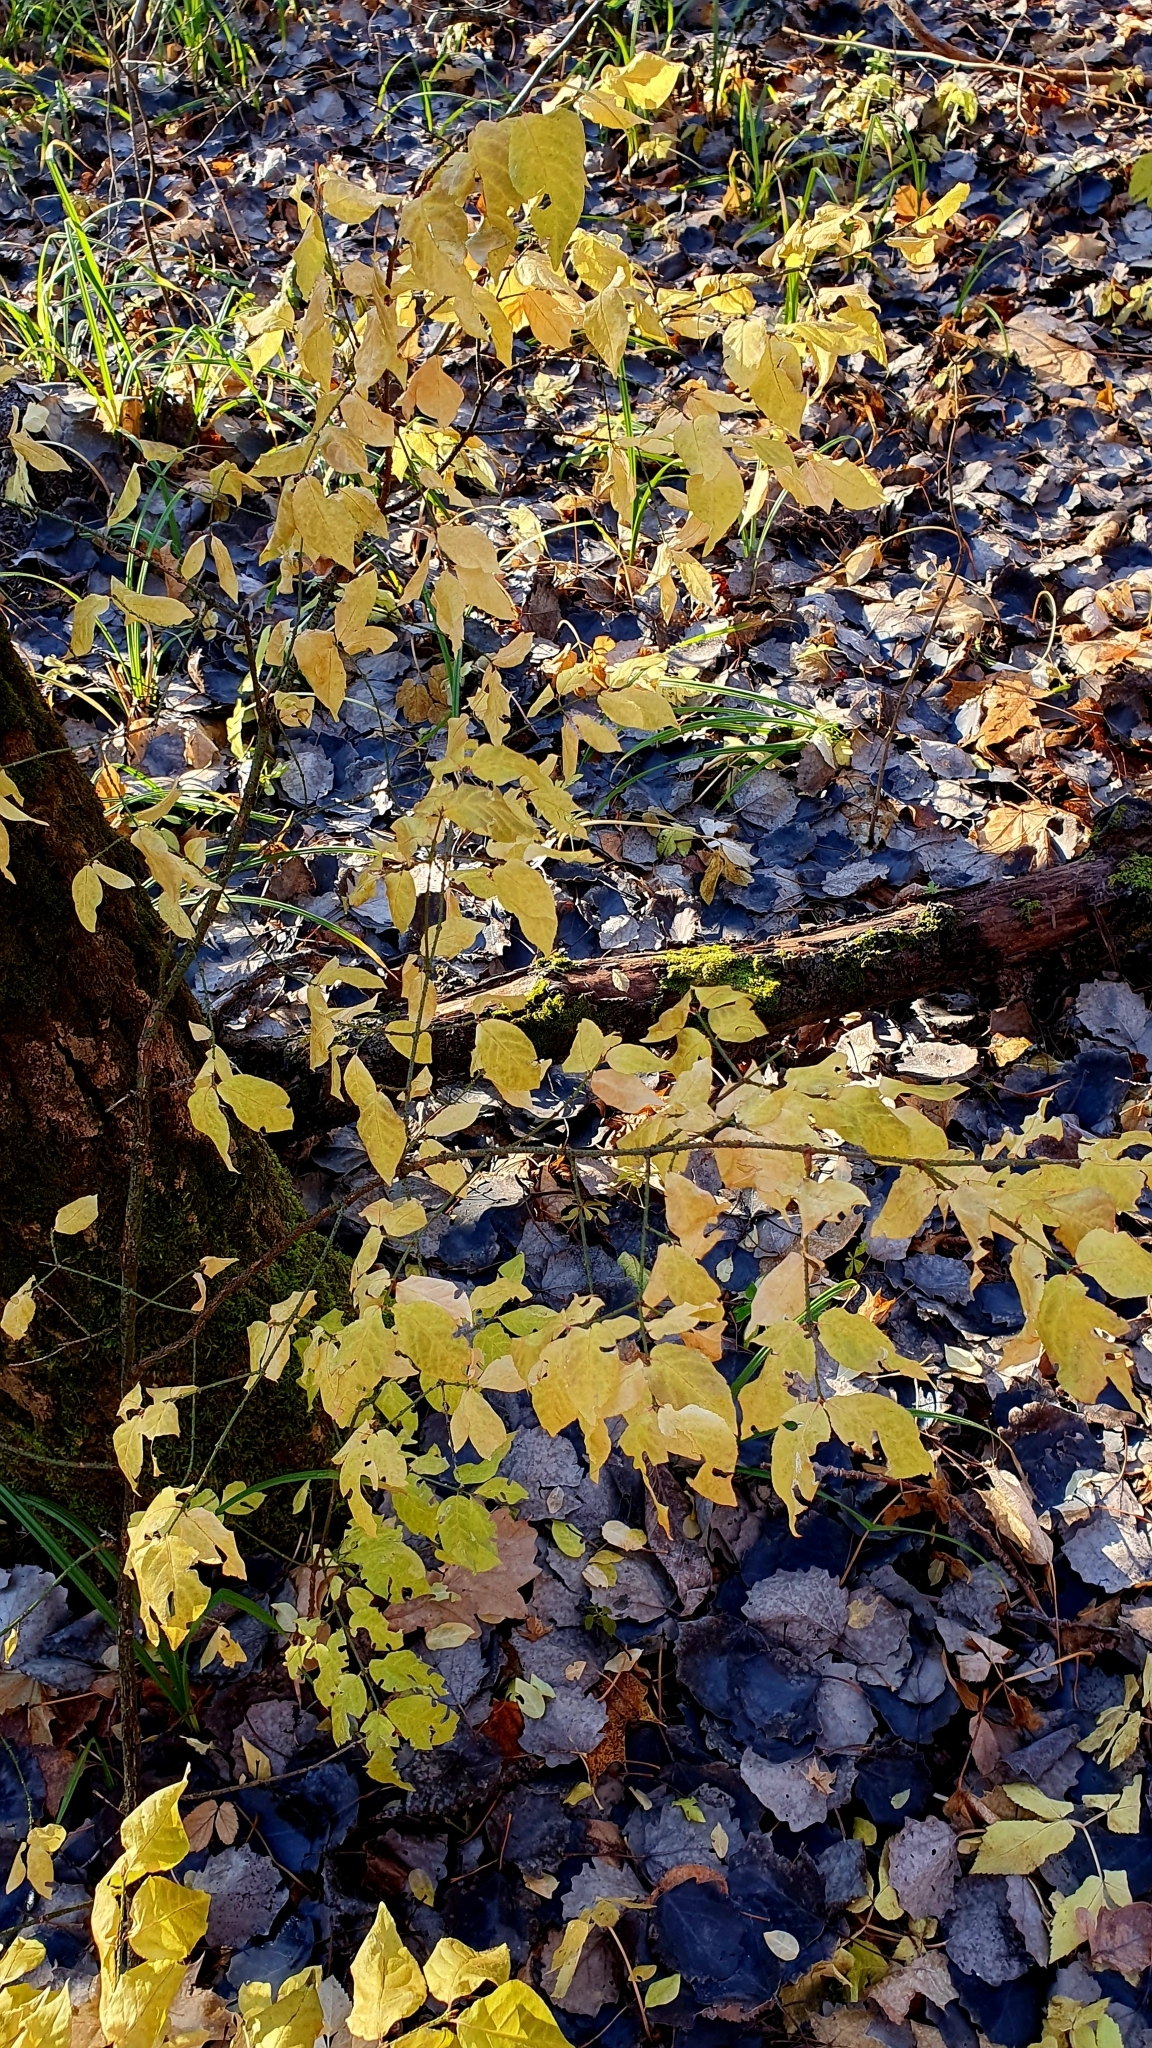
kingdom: Plantae
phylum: Tracheophyta
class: Magnoliopsida
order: Celastrales
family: Celastraceae
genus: Euonymus
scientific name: Euonymus verrucosus
